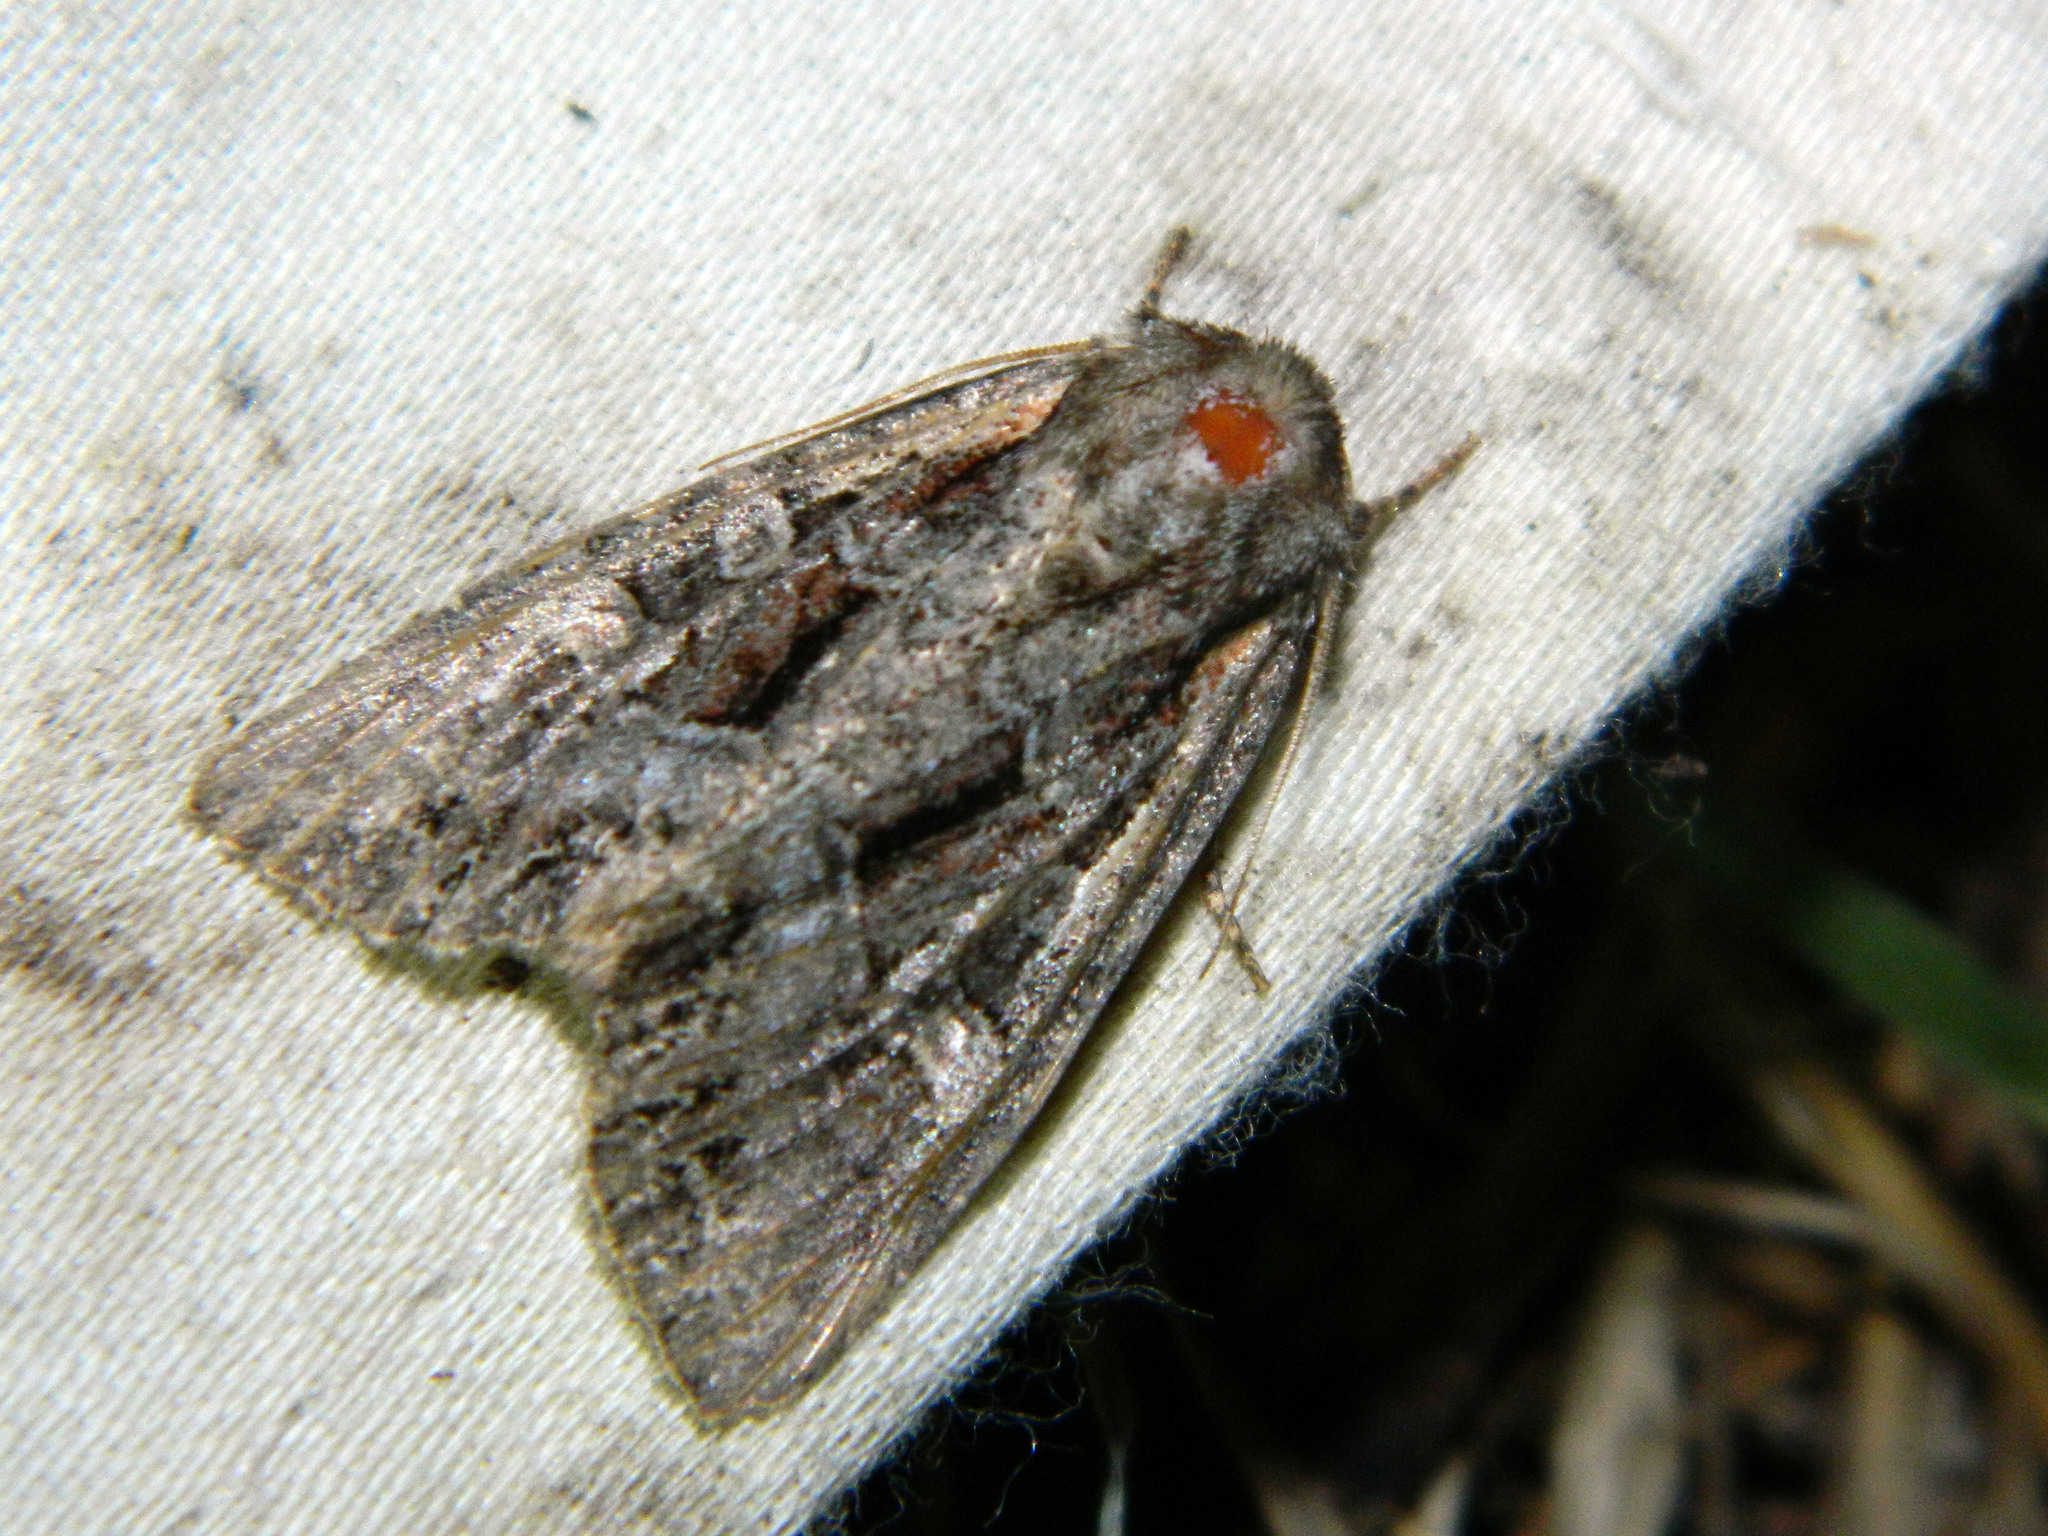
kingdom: Animalia
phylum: Arthropoda
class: Insecta
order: Lepidoptera
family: Noctuidae
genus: Lacanobia
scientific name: Lacanobia grandis
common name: Grand arches moth
